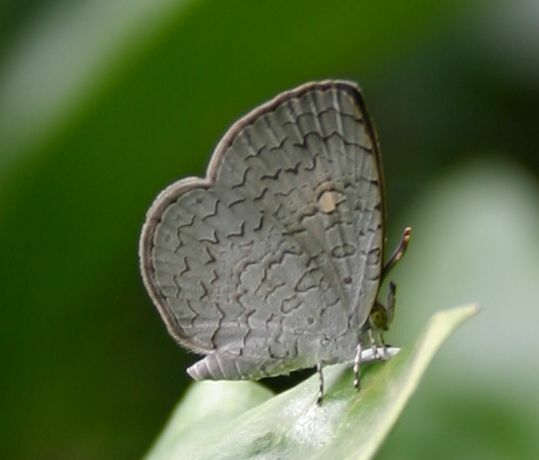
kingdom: Animalia
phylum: Arthropoda
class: Insecta
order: Lepidoptera
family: Lycaenidae
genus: Spalgis
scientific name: Spalgis epius
